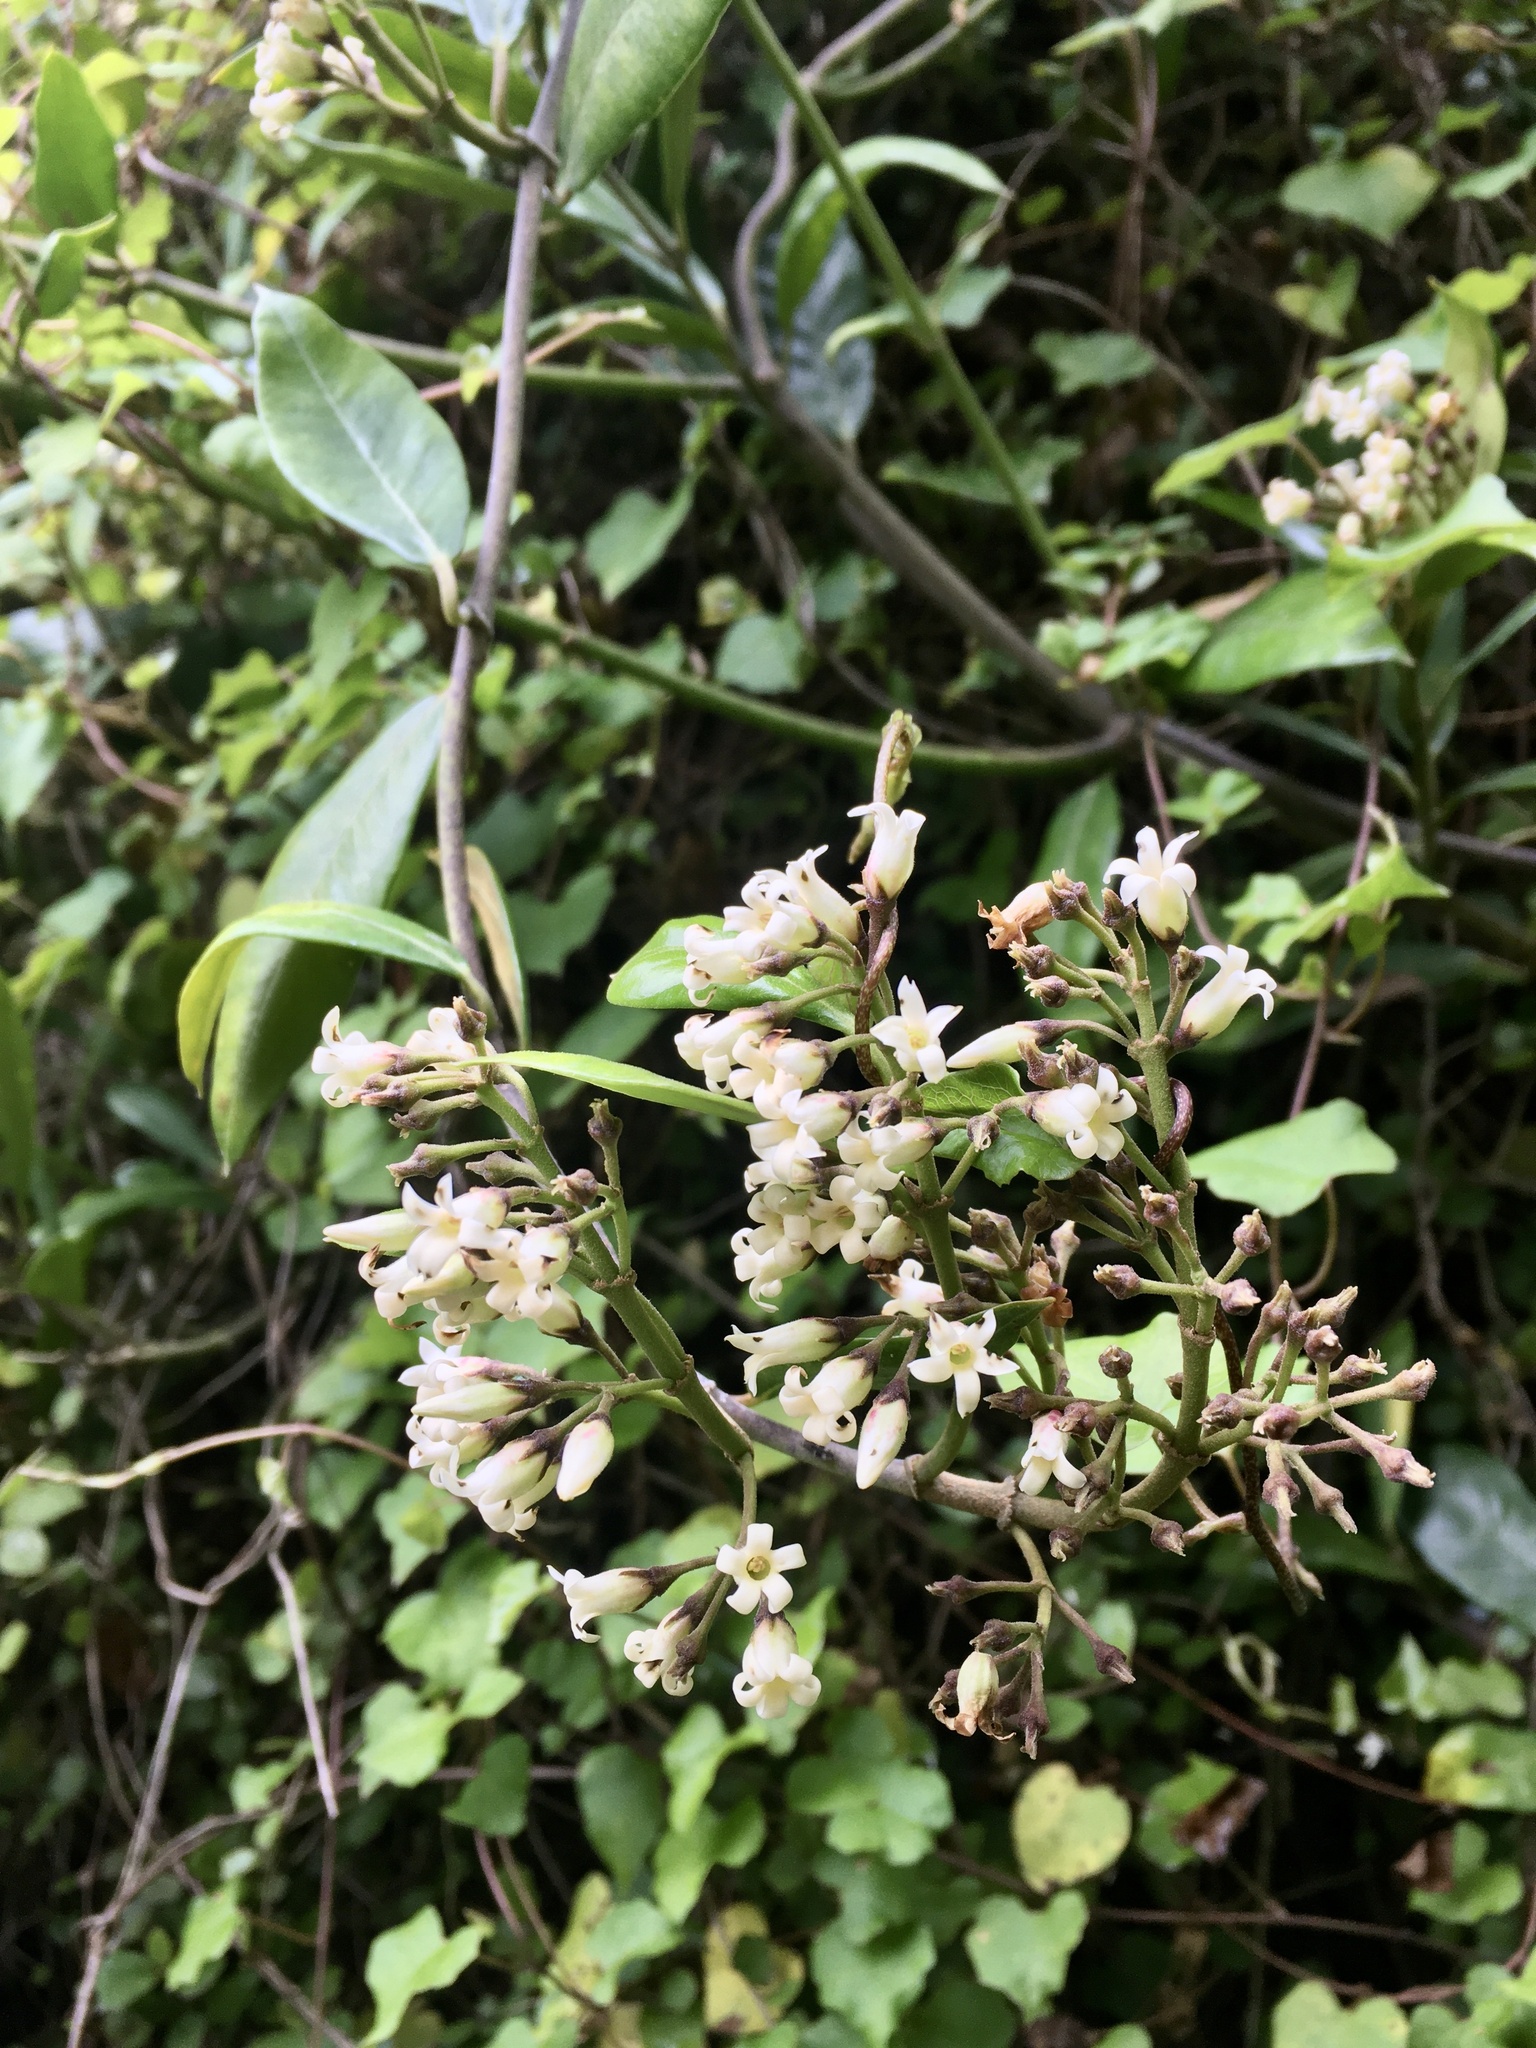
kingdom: Plantae
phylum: Tracheophyta
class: Magnoliopsida
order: Gentianales
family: Apocynaceae
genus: Parsonsia
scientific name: Parsonsia heterophylla
